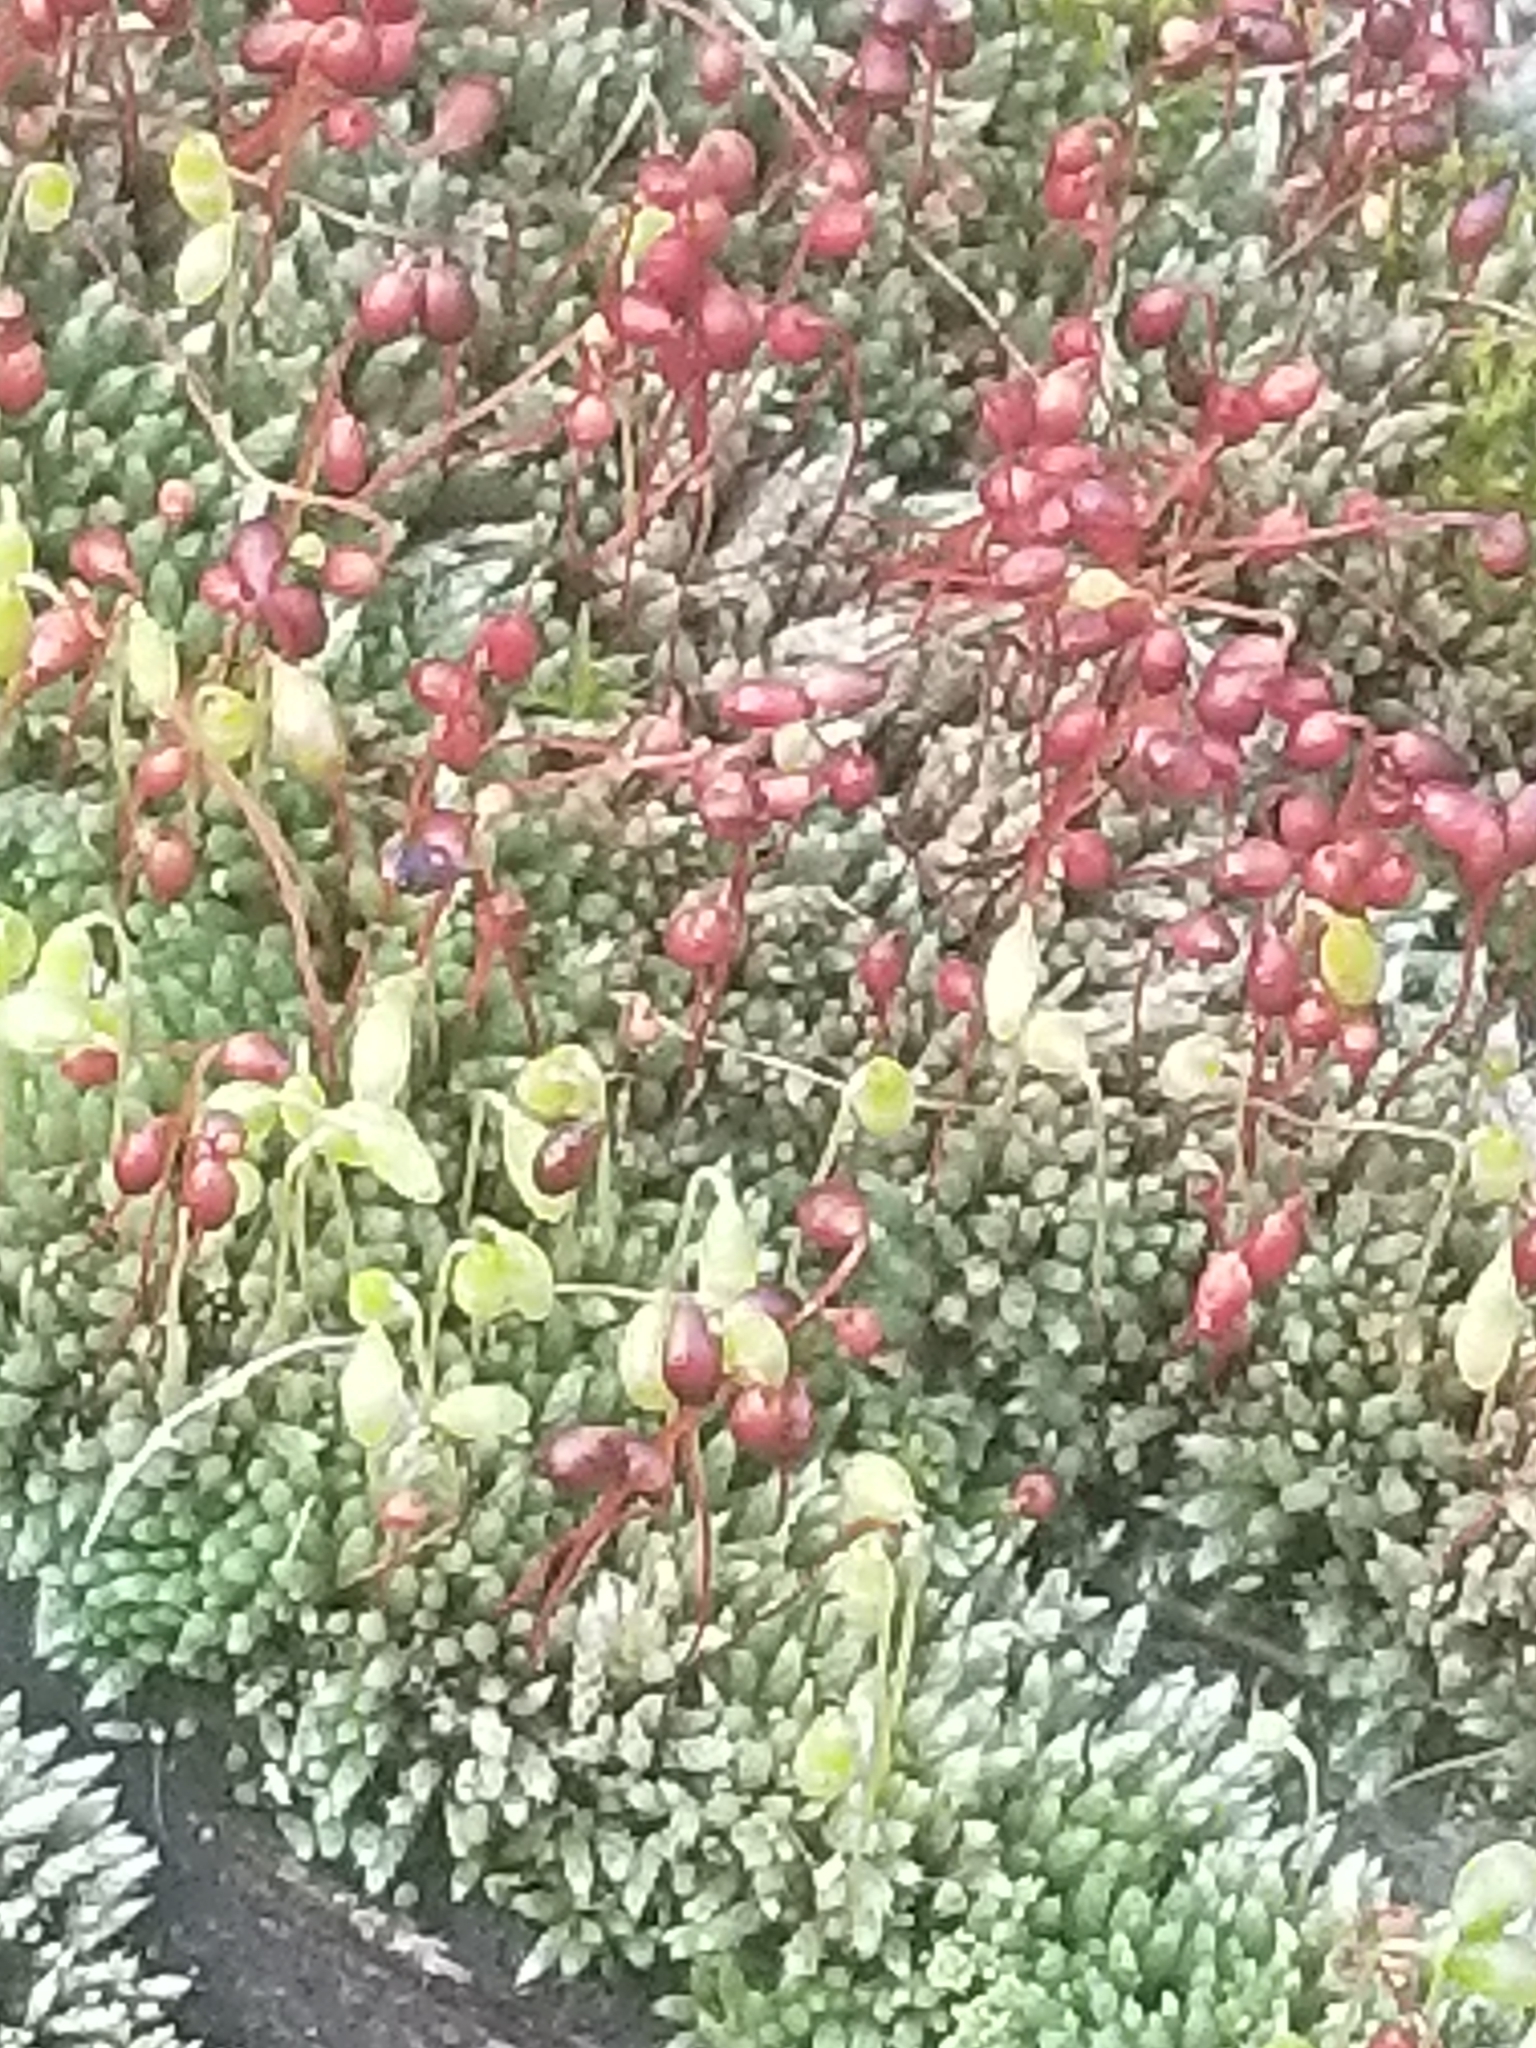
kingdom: Plantae
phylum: Bryophyta
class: Bryopsida
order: Bryales
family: Bryaceae
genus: Bryum
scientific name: Bryum argenteum
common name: Silver-moss
